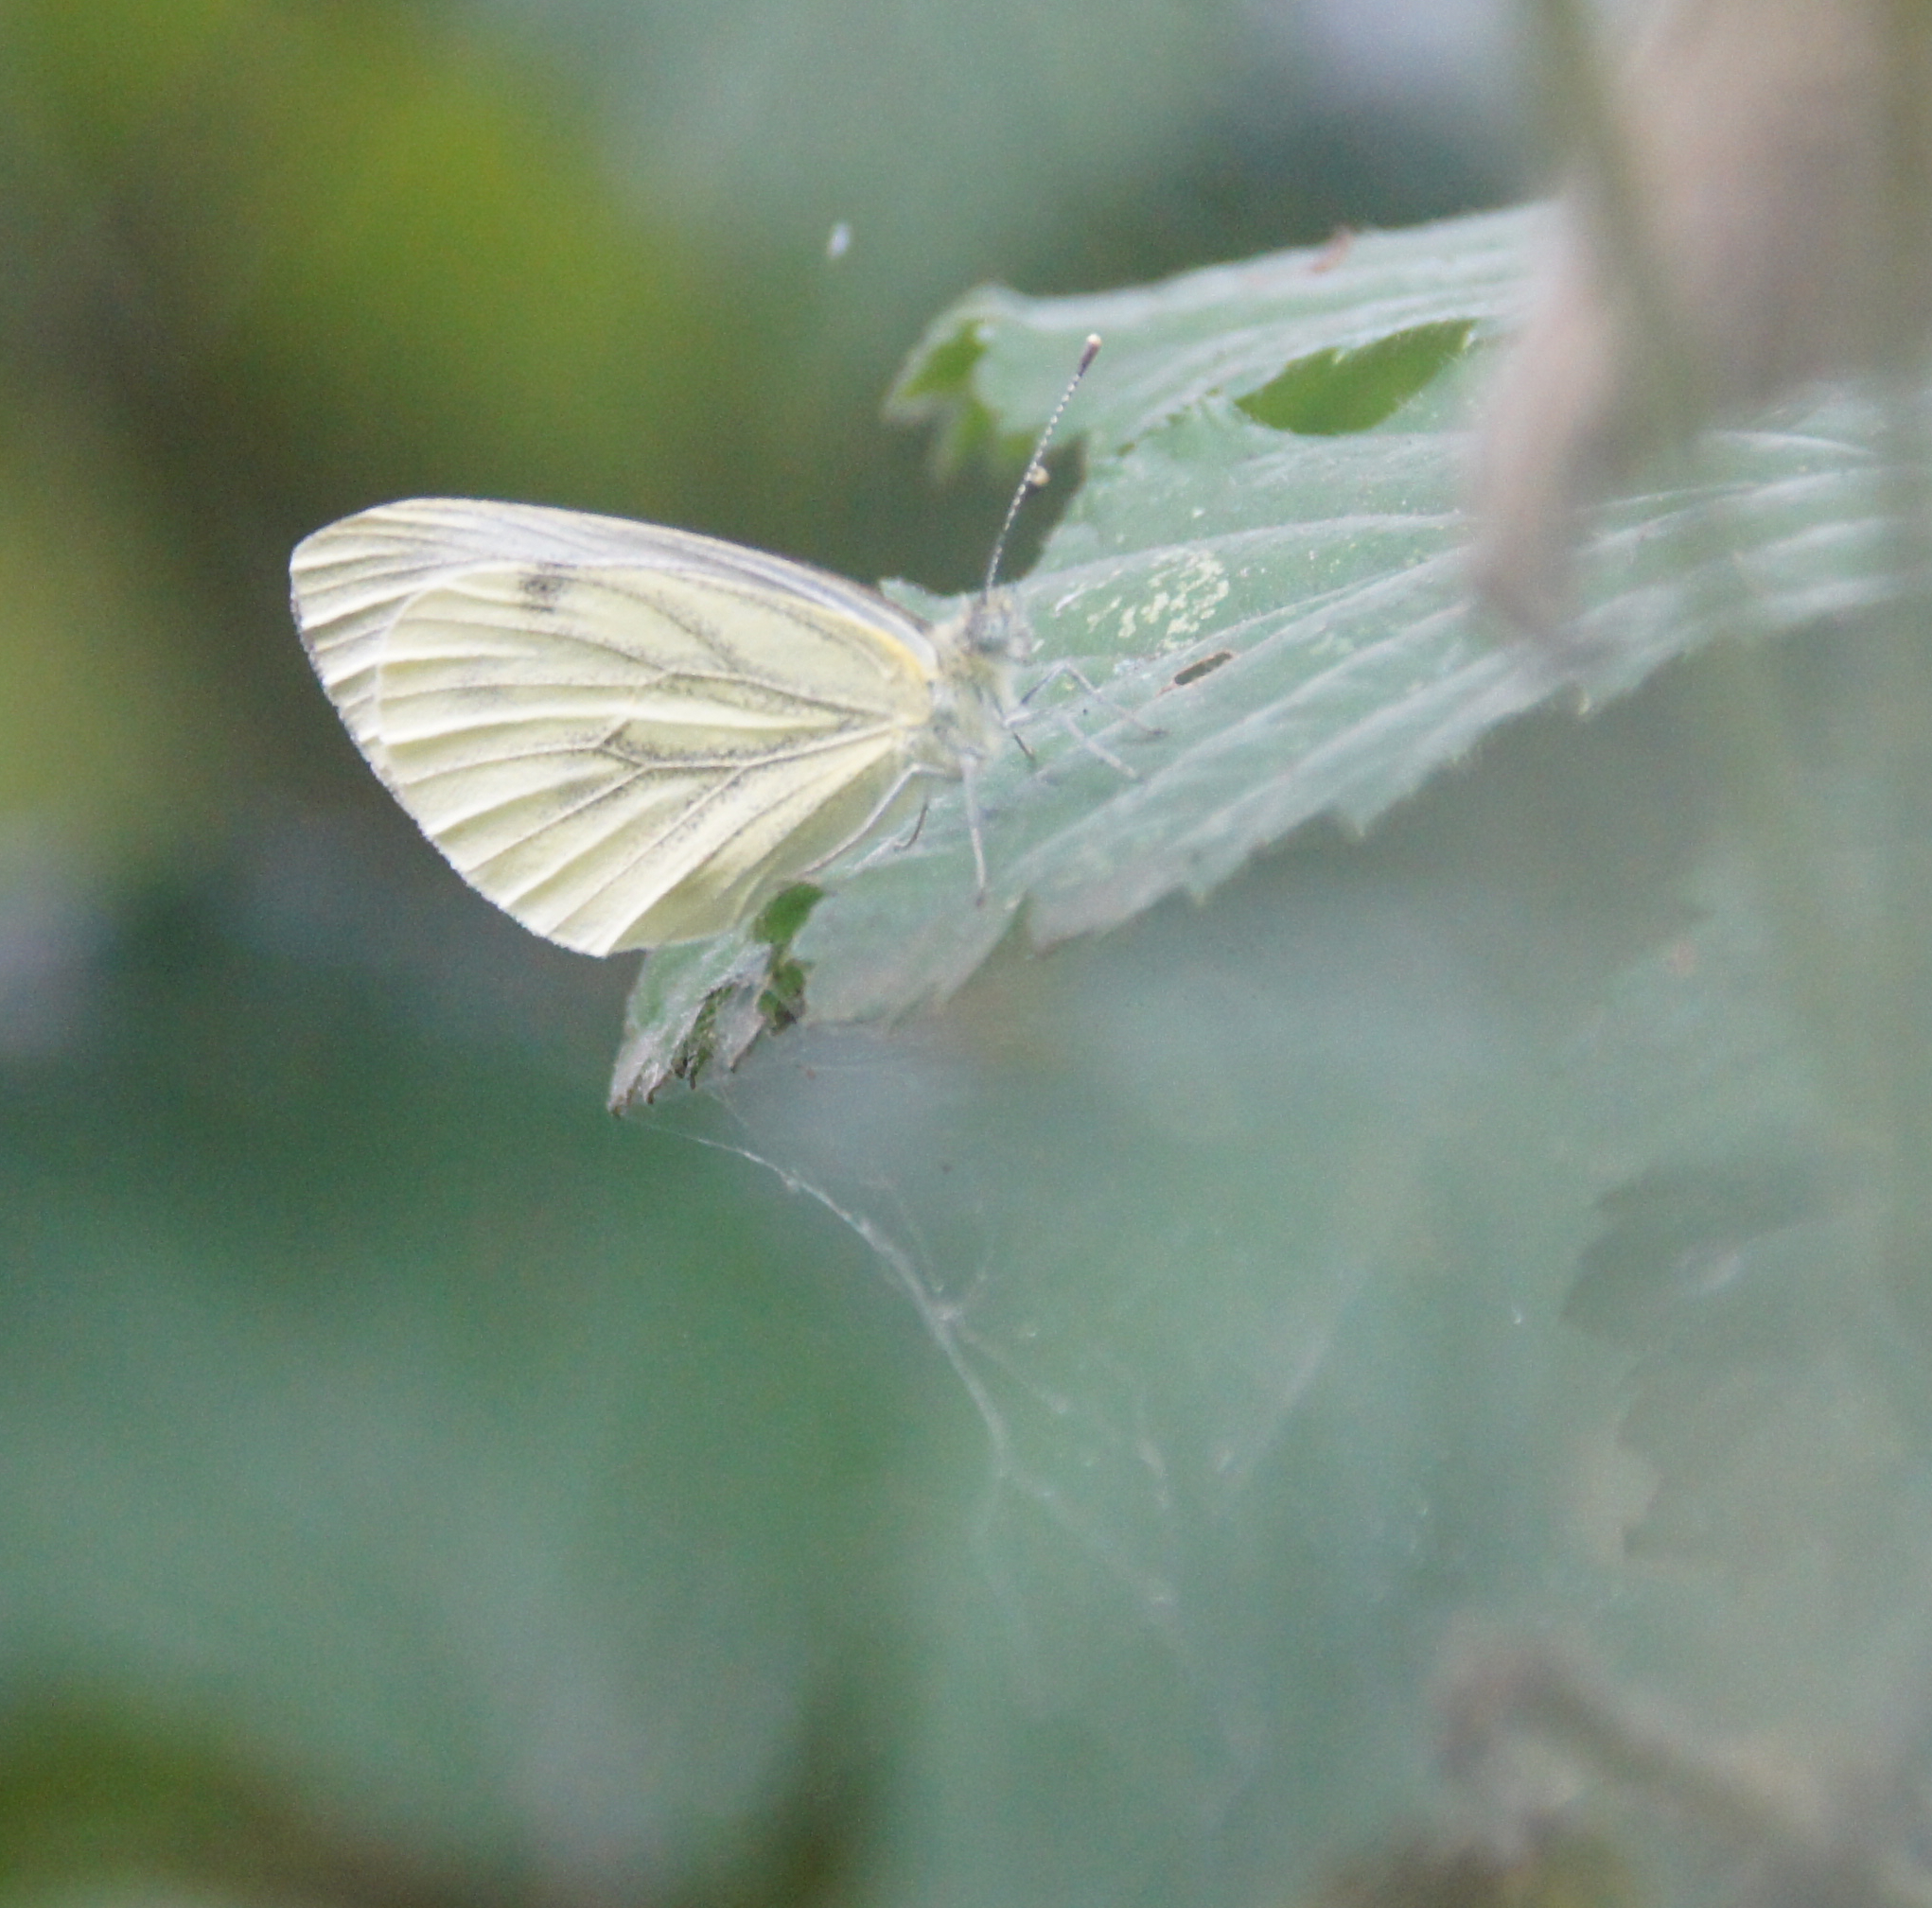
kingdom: Animalia
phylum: Arthropoda
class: Insecta
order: Lepidoptera
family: Pieridae
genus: Pieris
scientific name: Pieris napi
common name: Green-veined white
